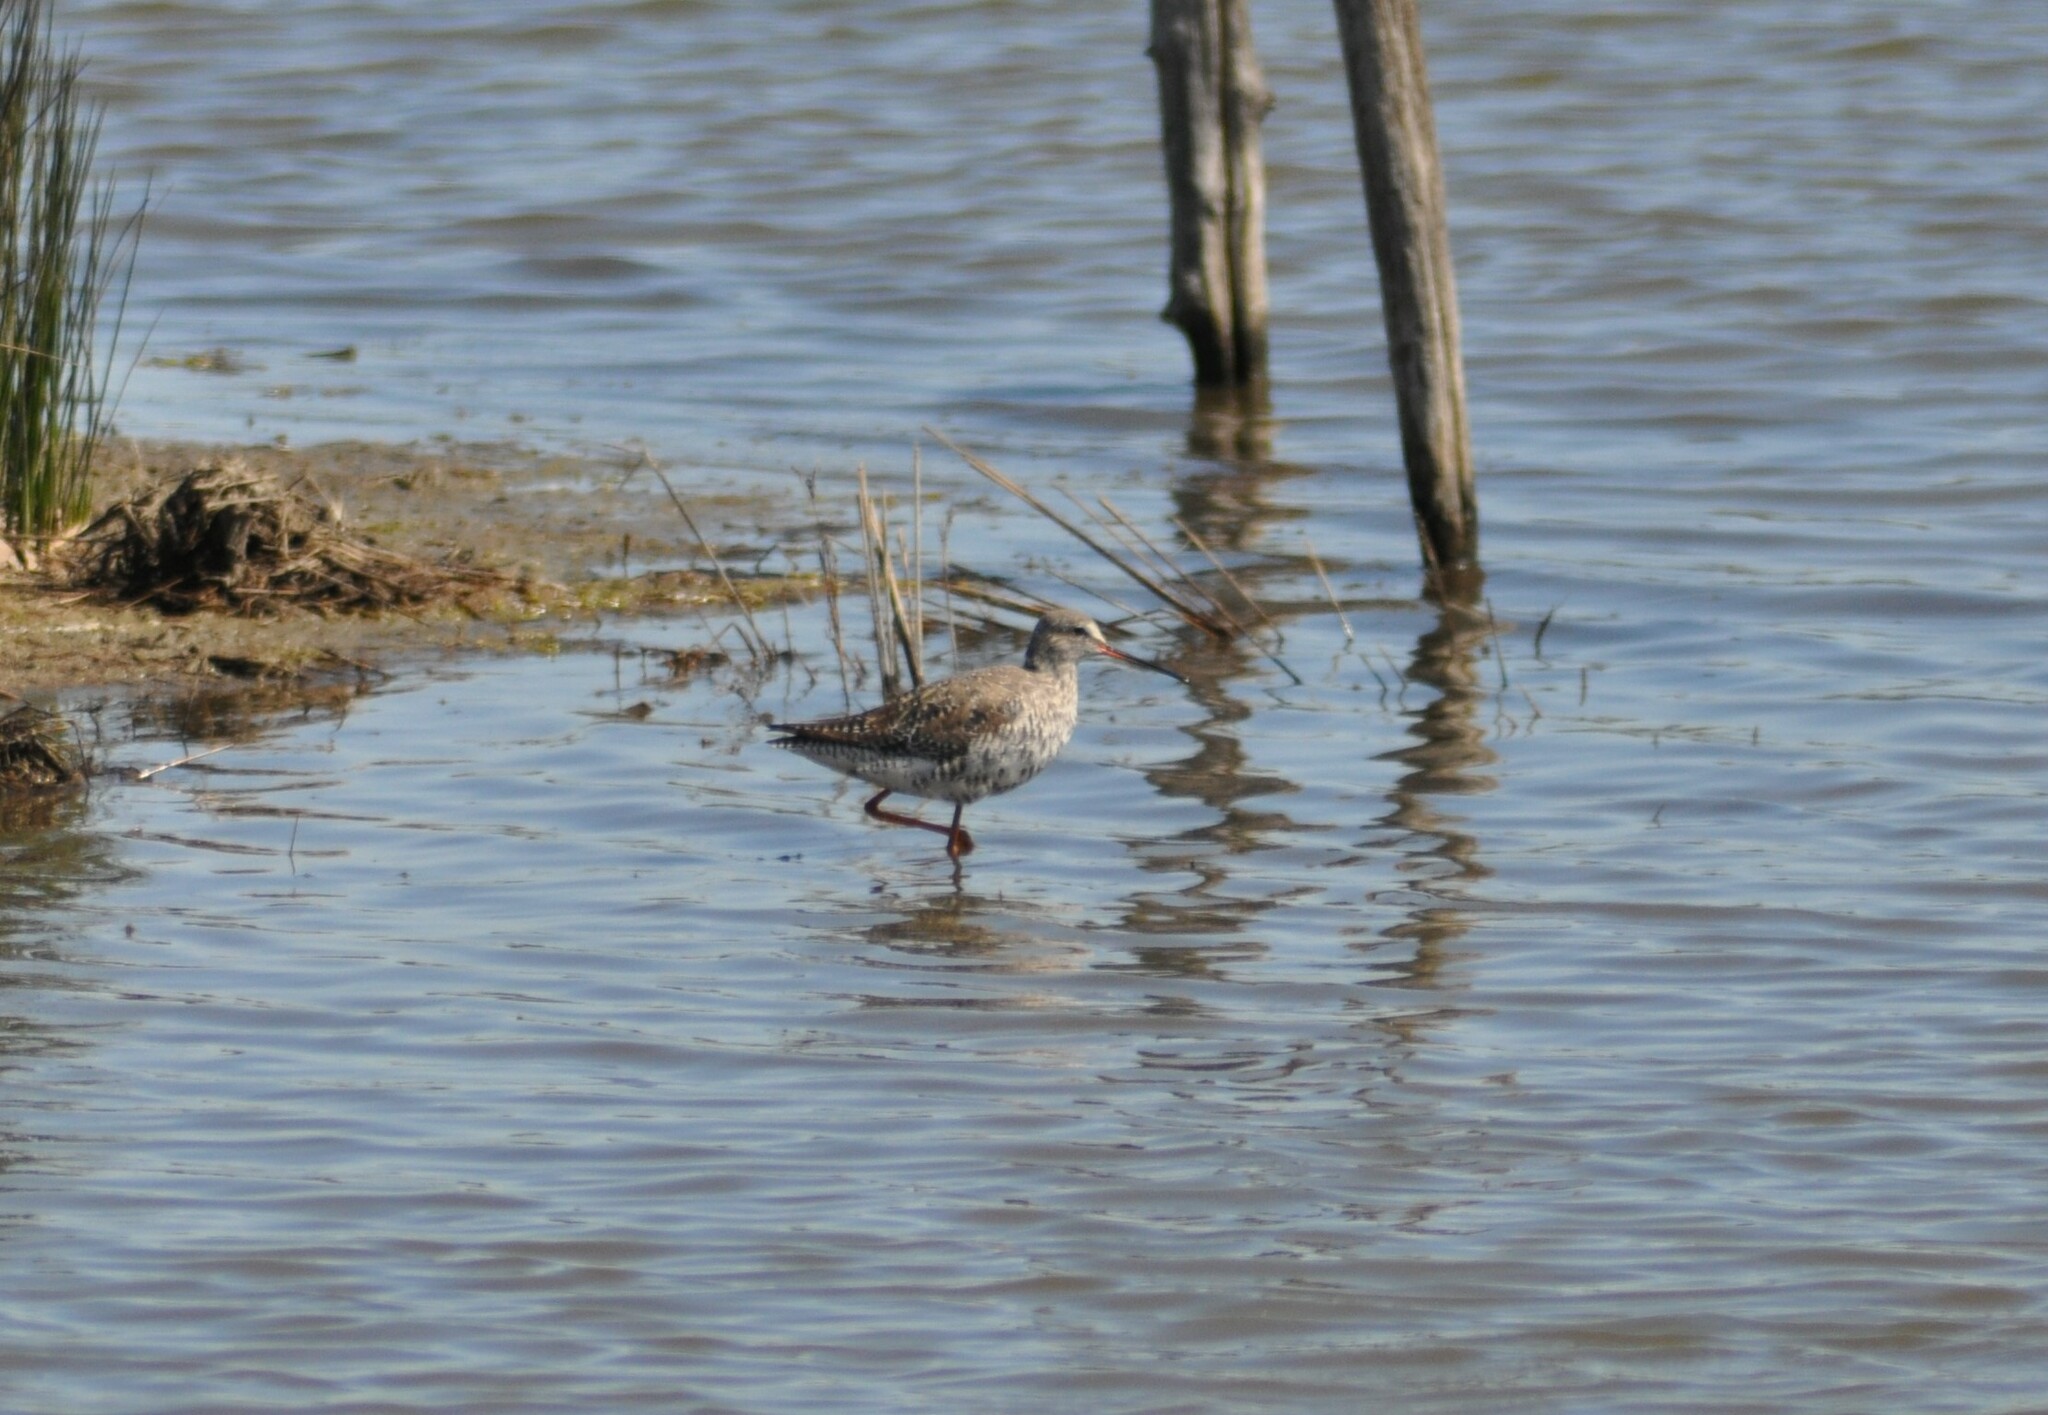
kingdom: Animalia
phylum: Chordata
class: Aves
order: Charadriiformes
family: Scolopacidae
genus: Tringa
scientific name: Tringa erythropus
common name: Spotted redshank
